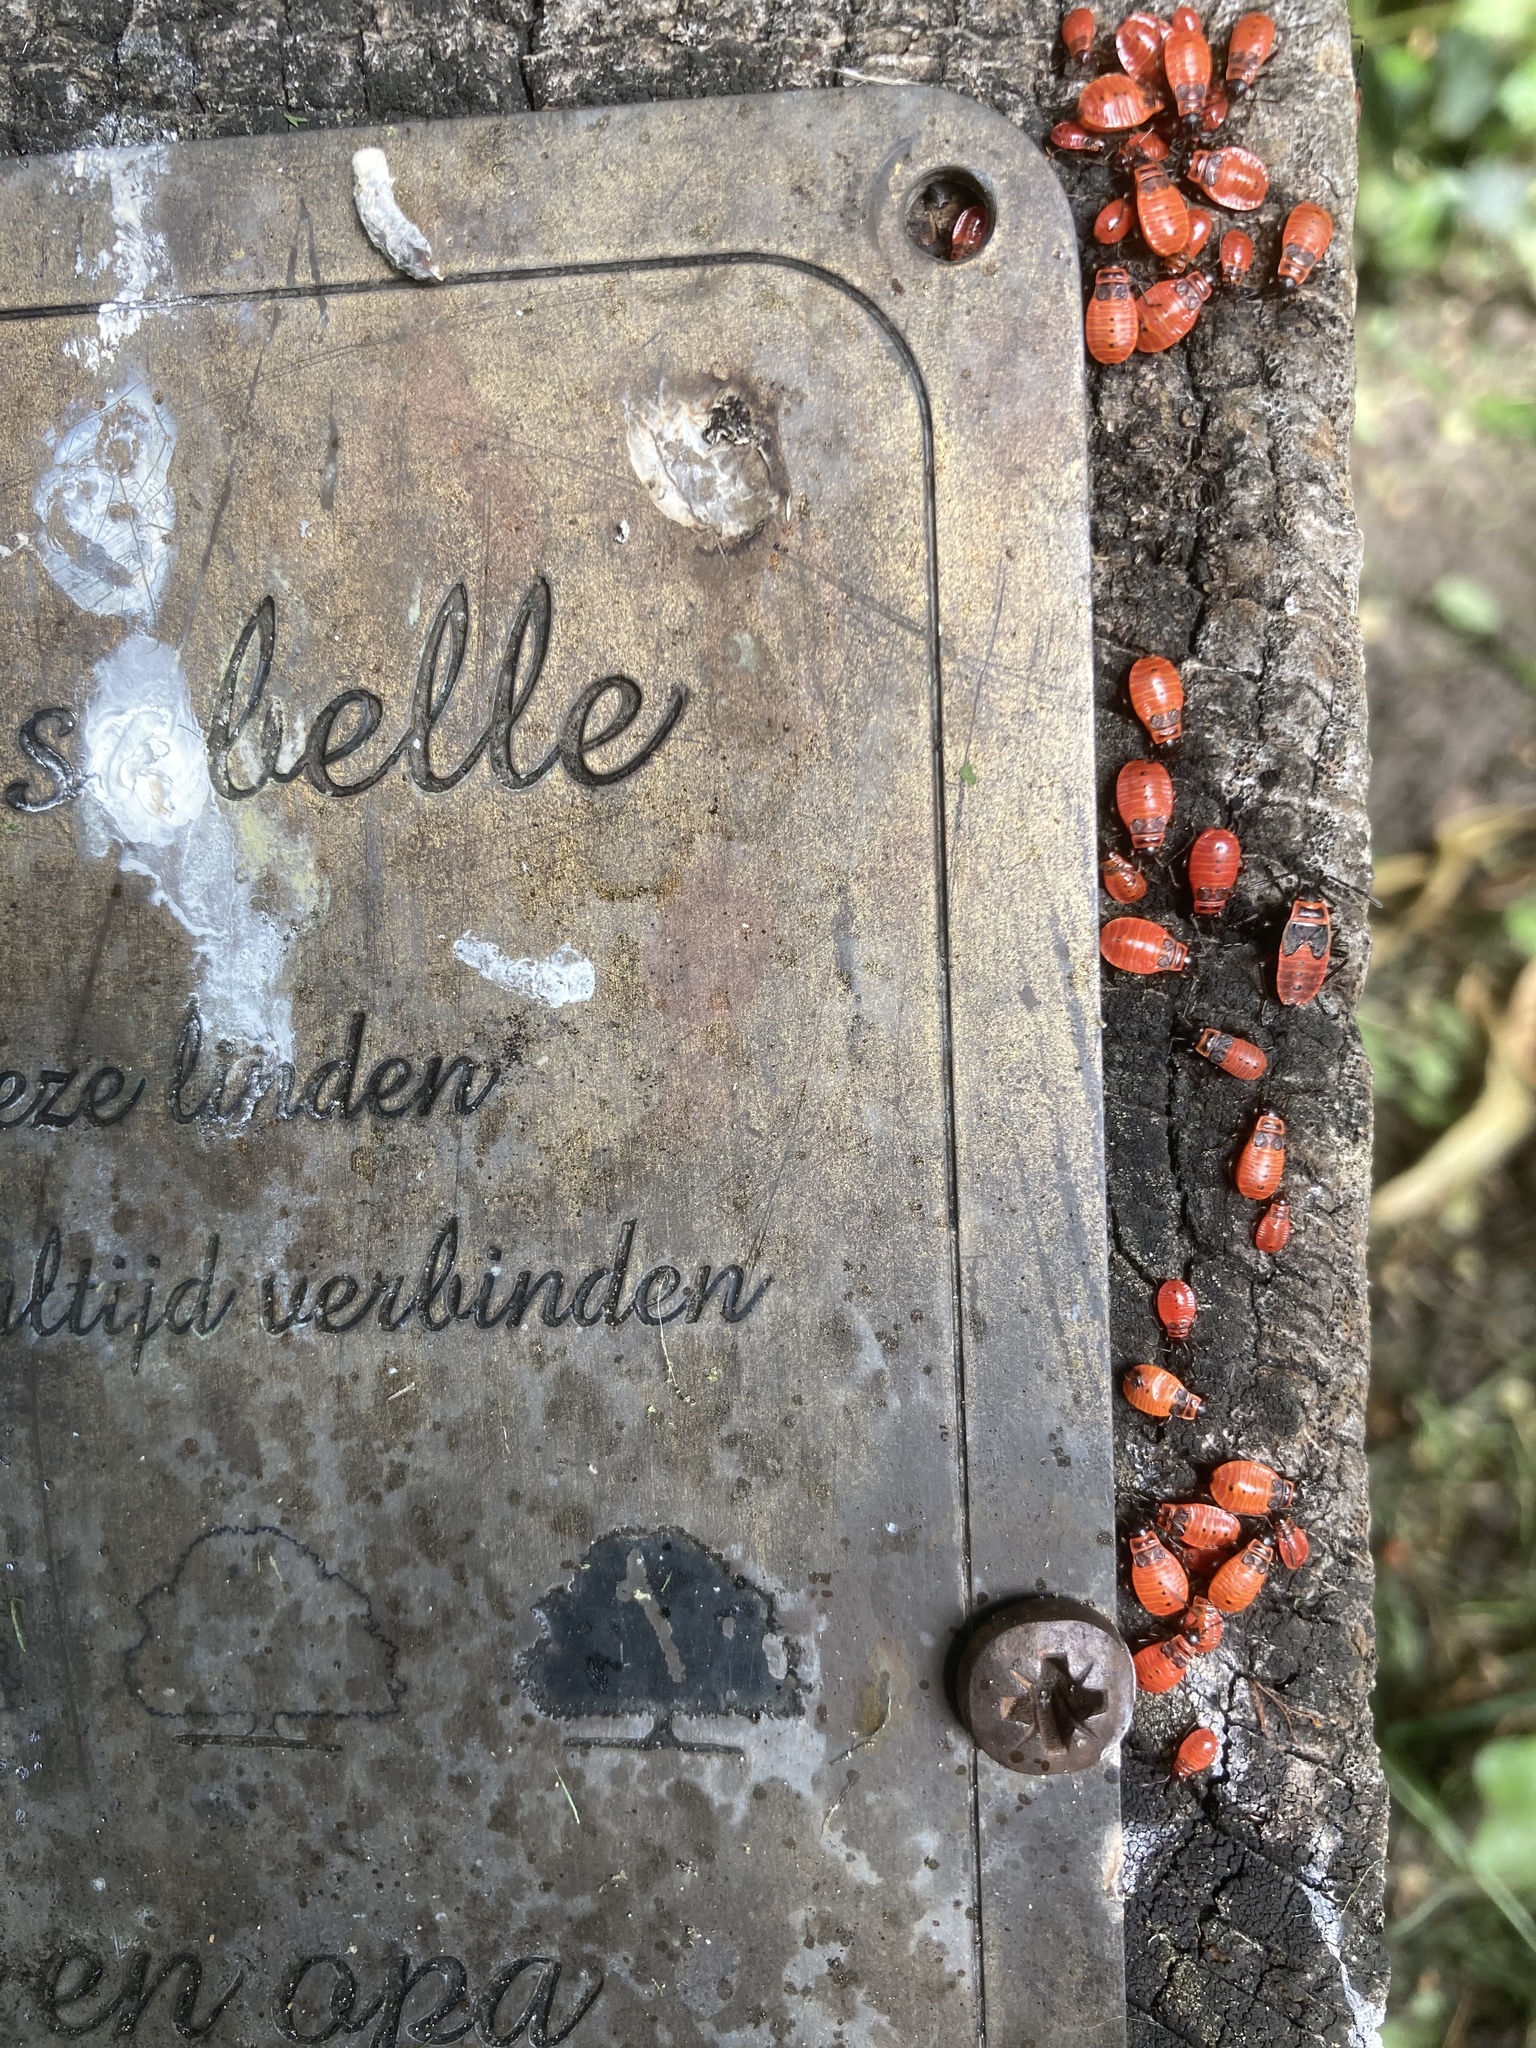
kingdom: Animalia
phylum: Arthropoda
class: Insecta
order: Hemiptera
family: Pyrrhocoridae
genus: Pyrrhocoris
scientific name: Pyrrhocoris apterus
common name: Firebug
